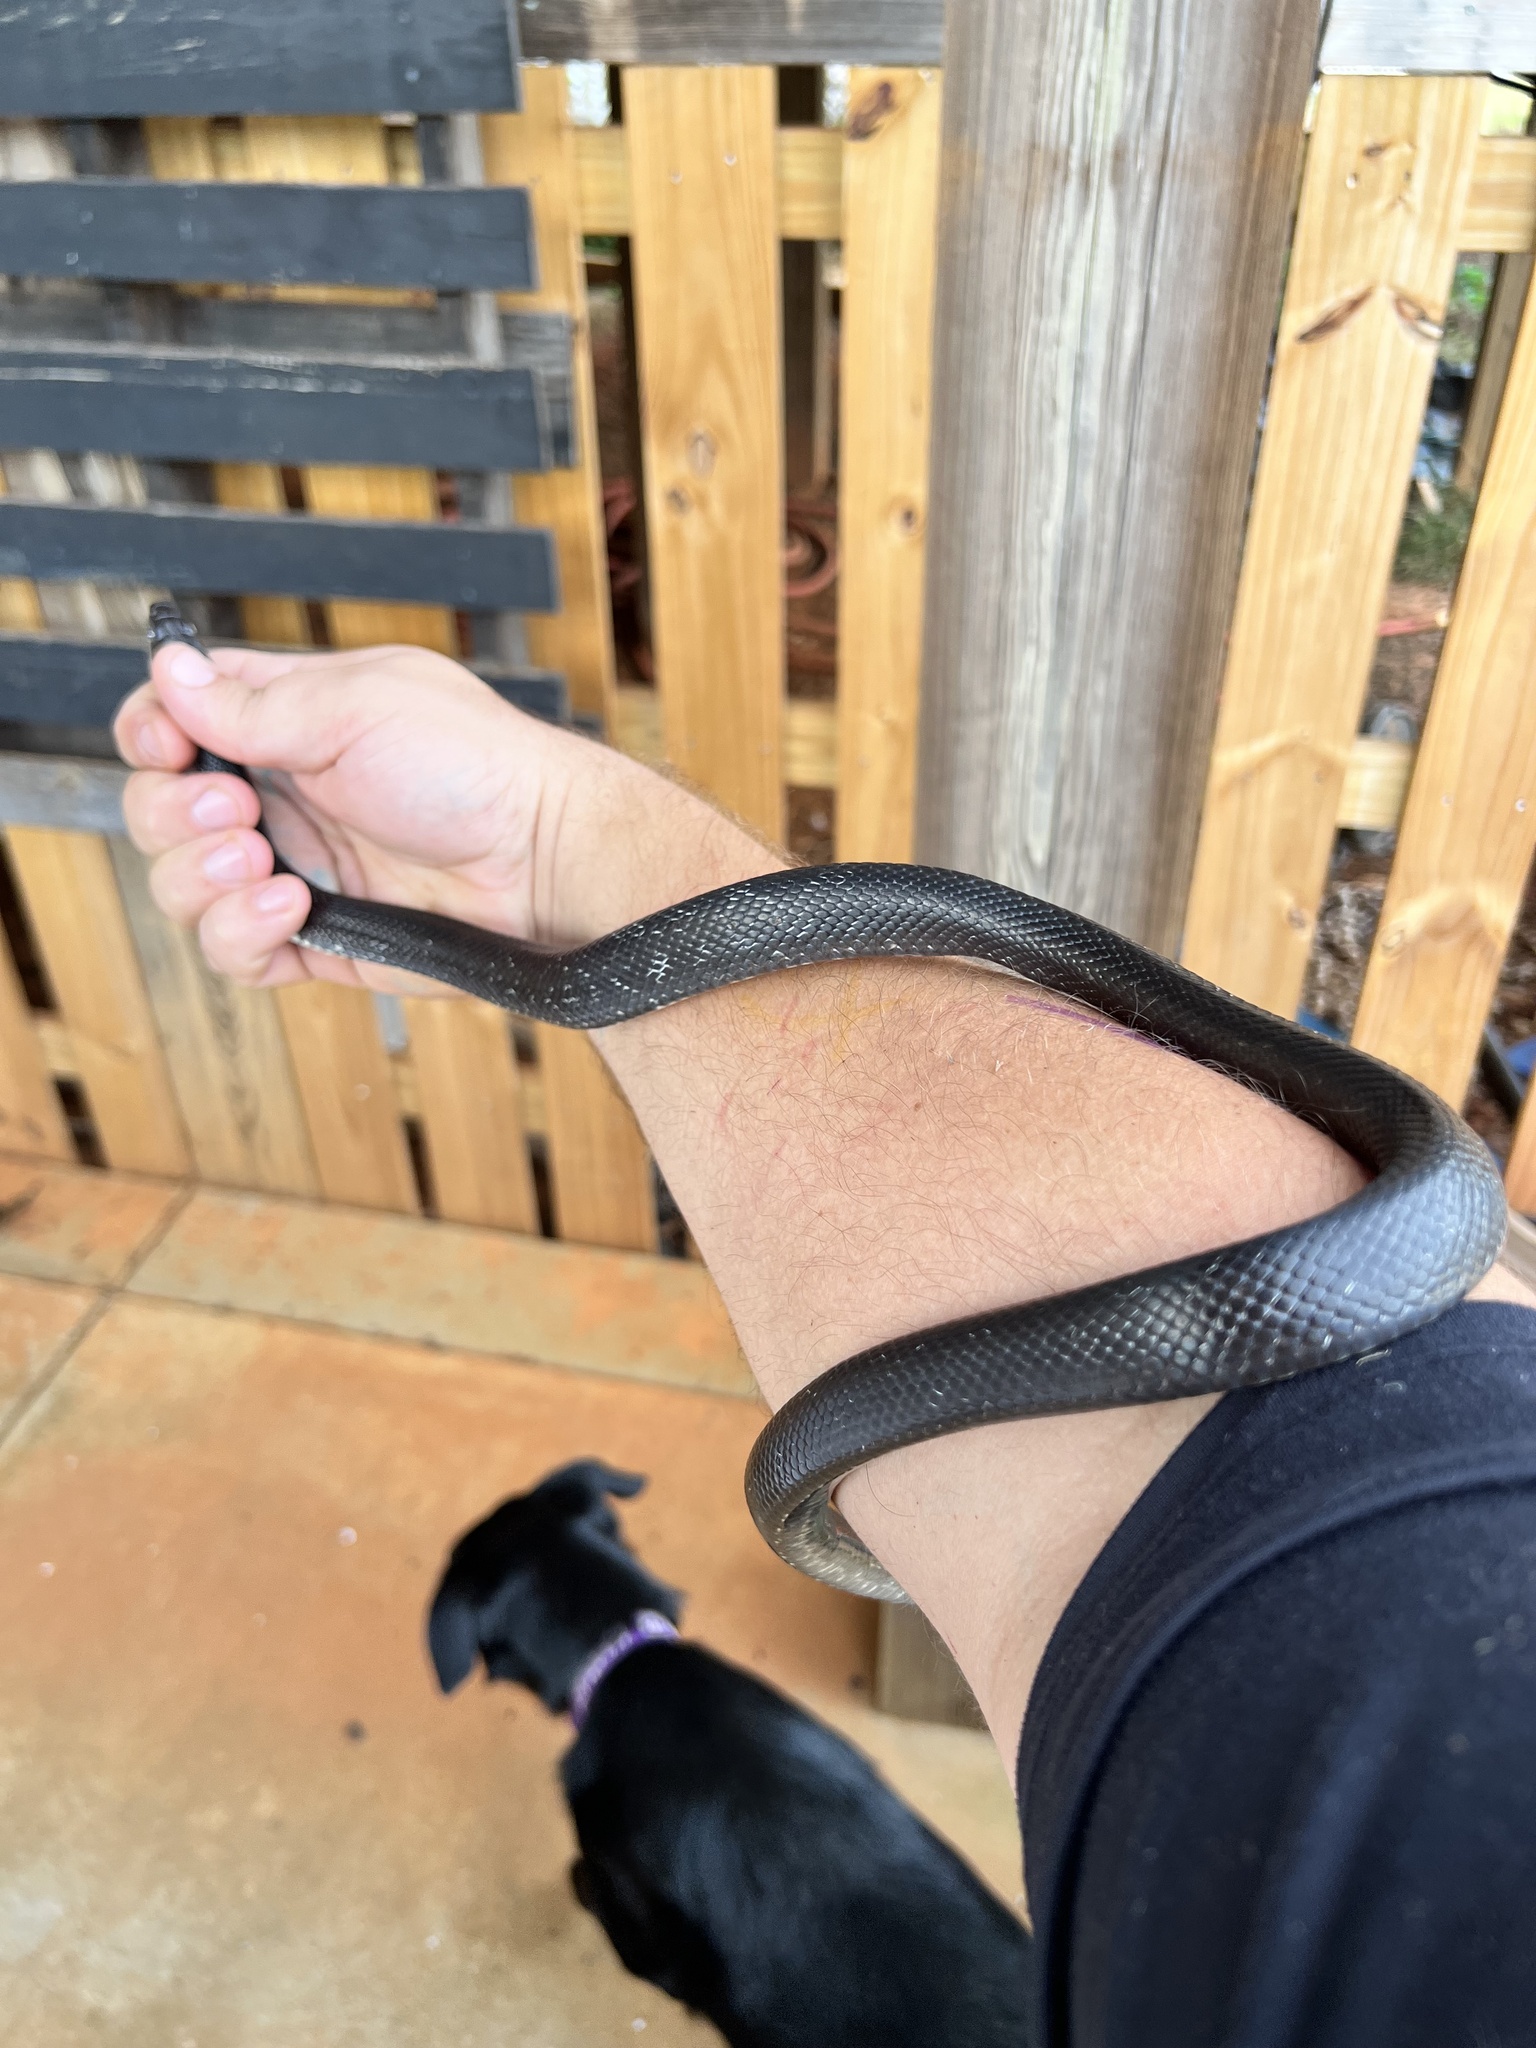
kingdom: Animalia
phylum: Chordata
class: Squamata
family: Colubridae
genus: Pantherophis
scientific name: Pantherophis alleghaniensis
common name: Eastern rat snake
